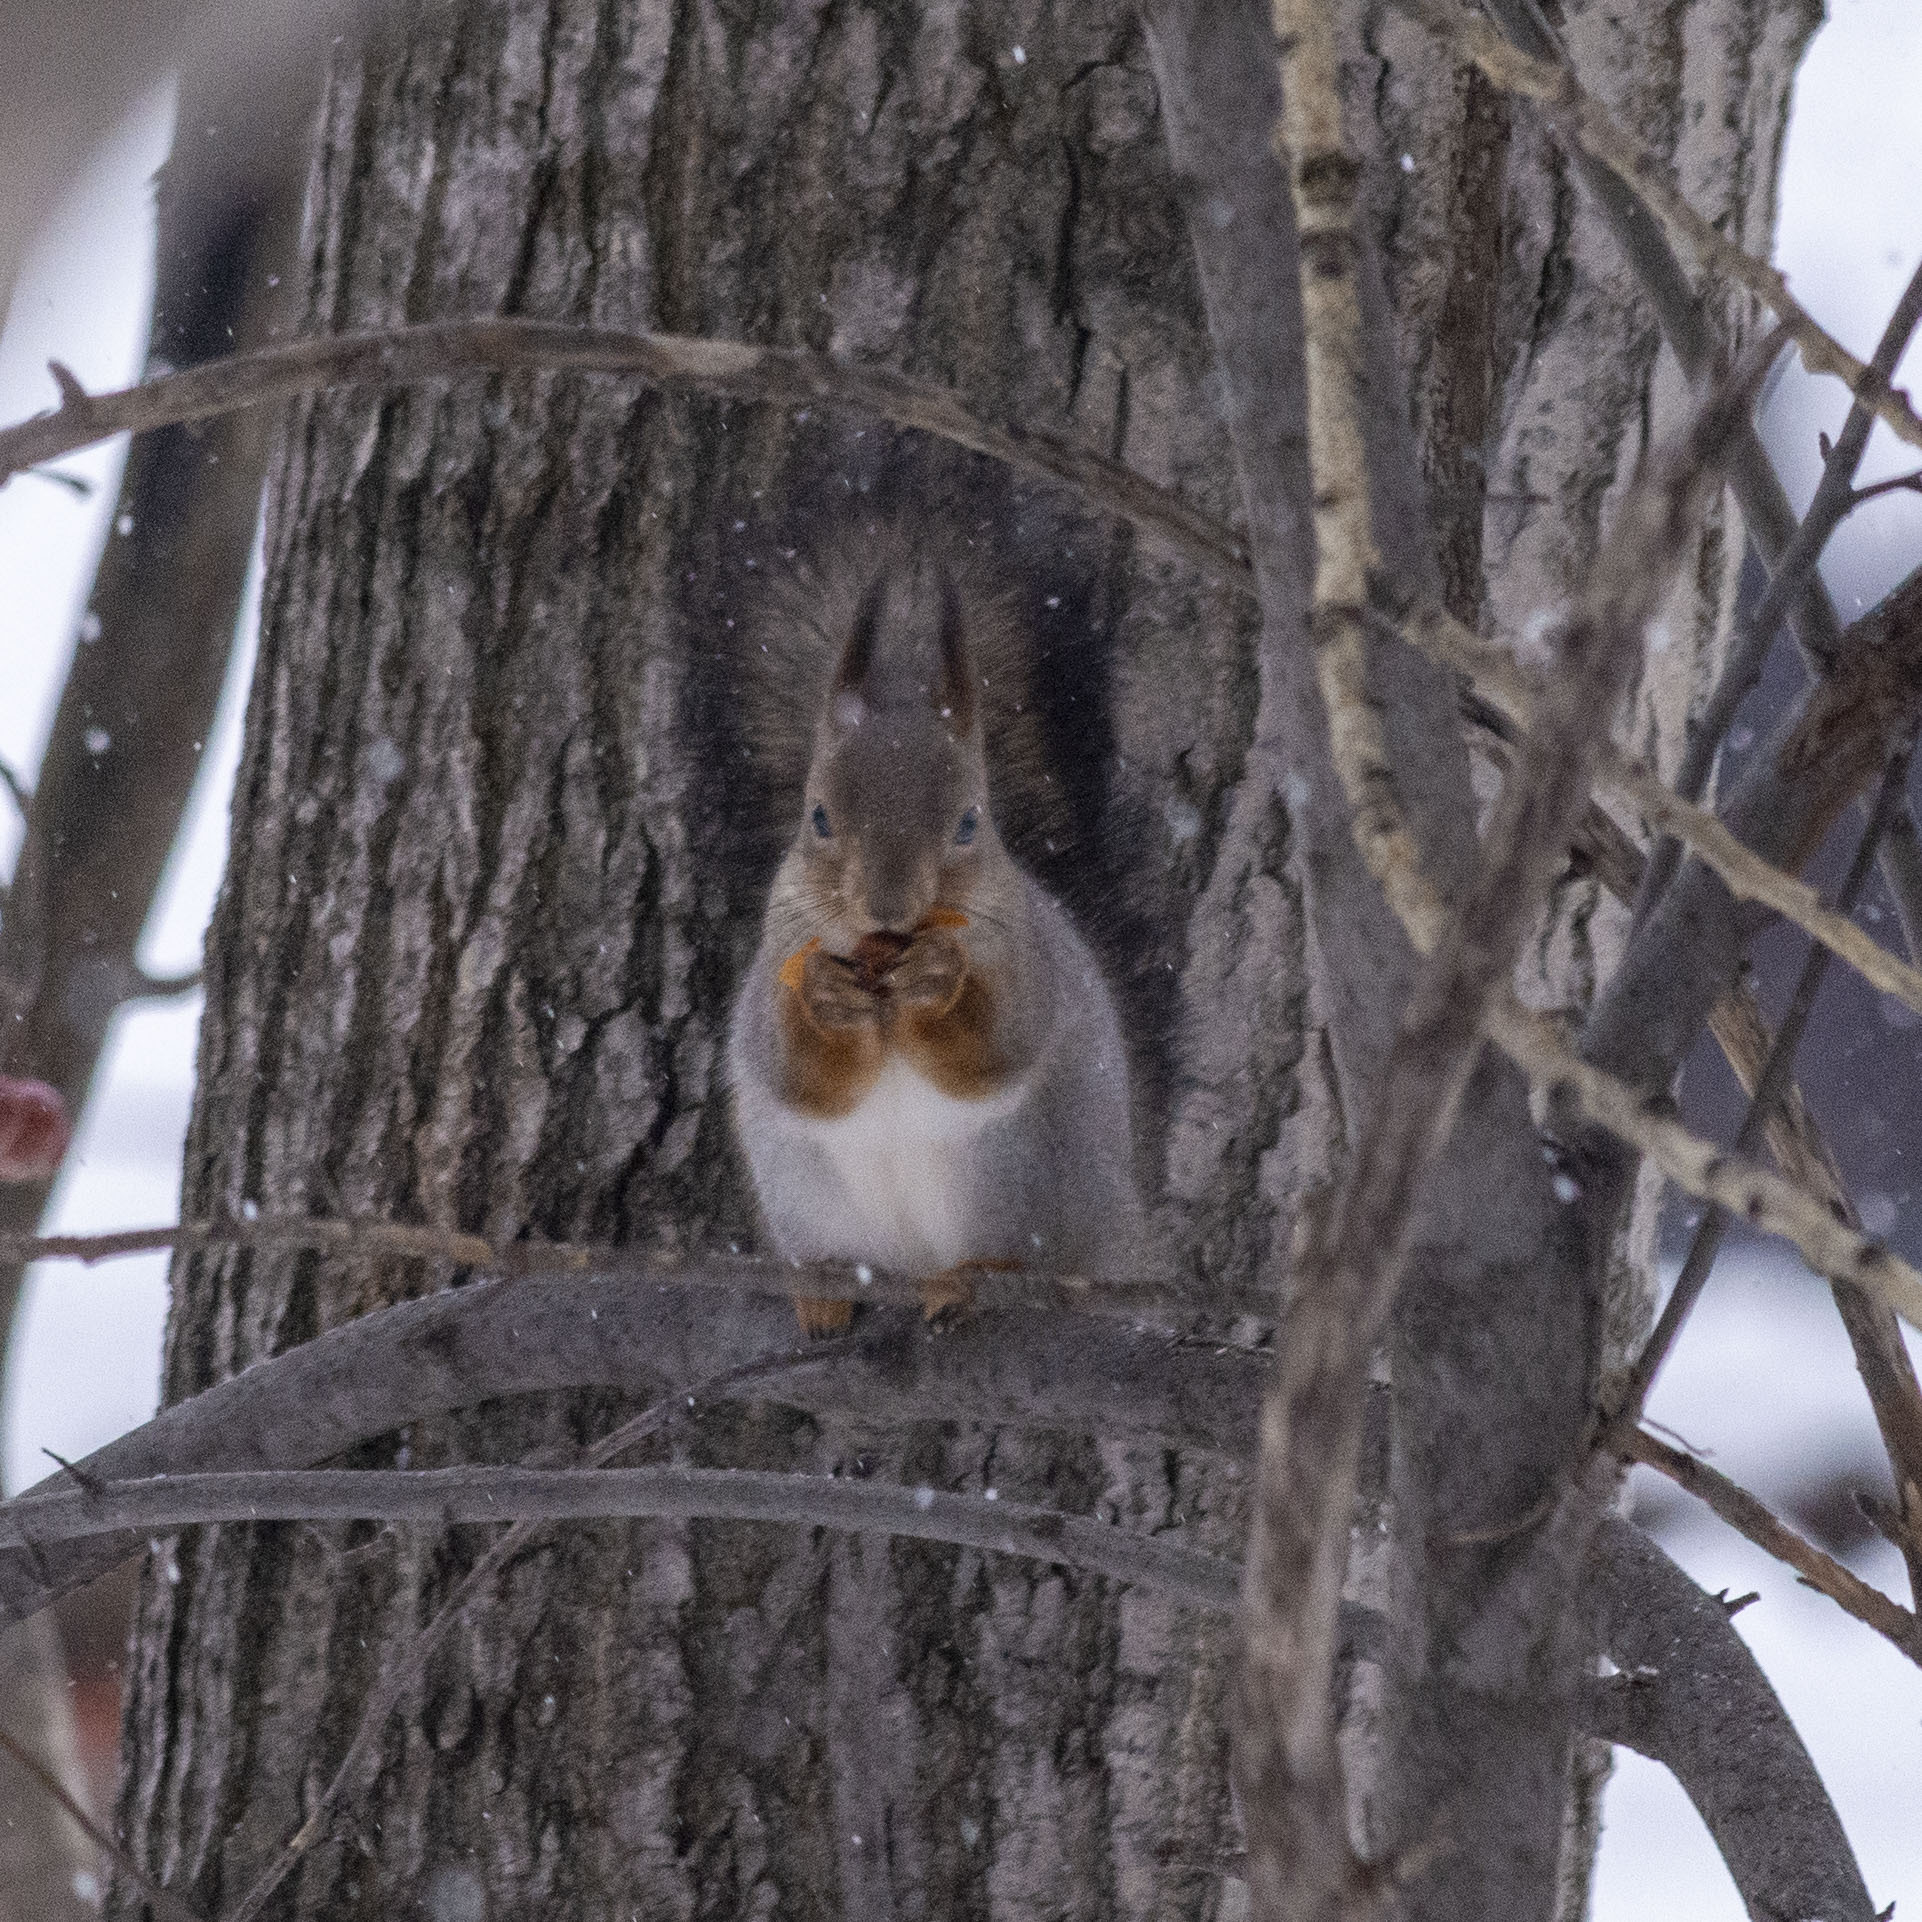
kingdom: Animalia
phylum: Chordata
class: Mammalia
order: Rodentia
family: Sciuridae
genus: Sciurus
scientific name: Sciurus vulgaris
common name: Eurasian red squirrel
